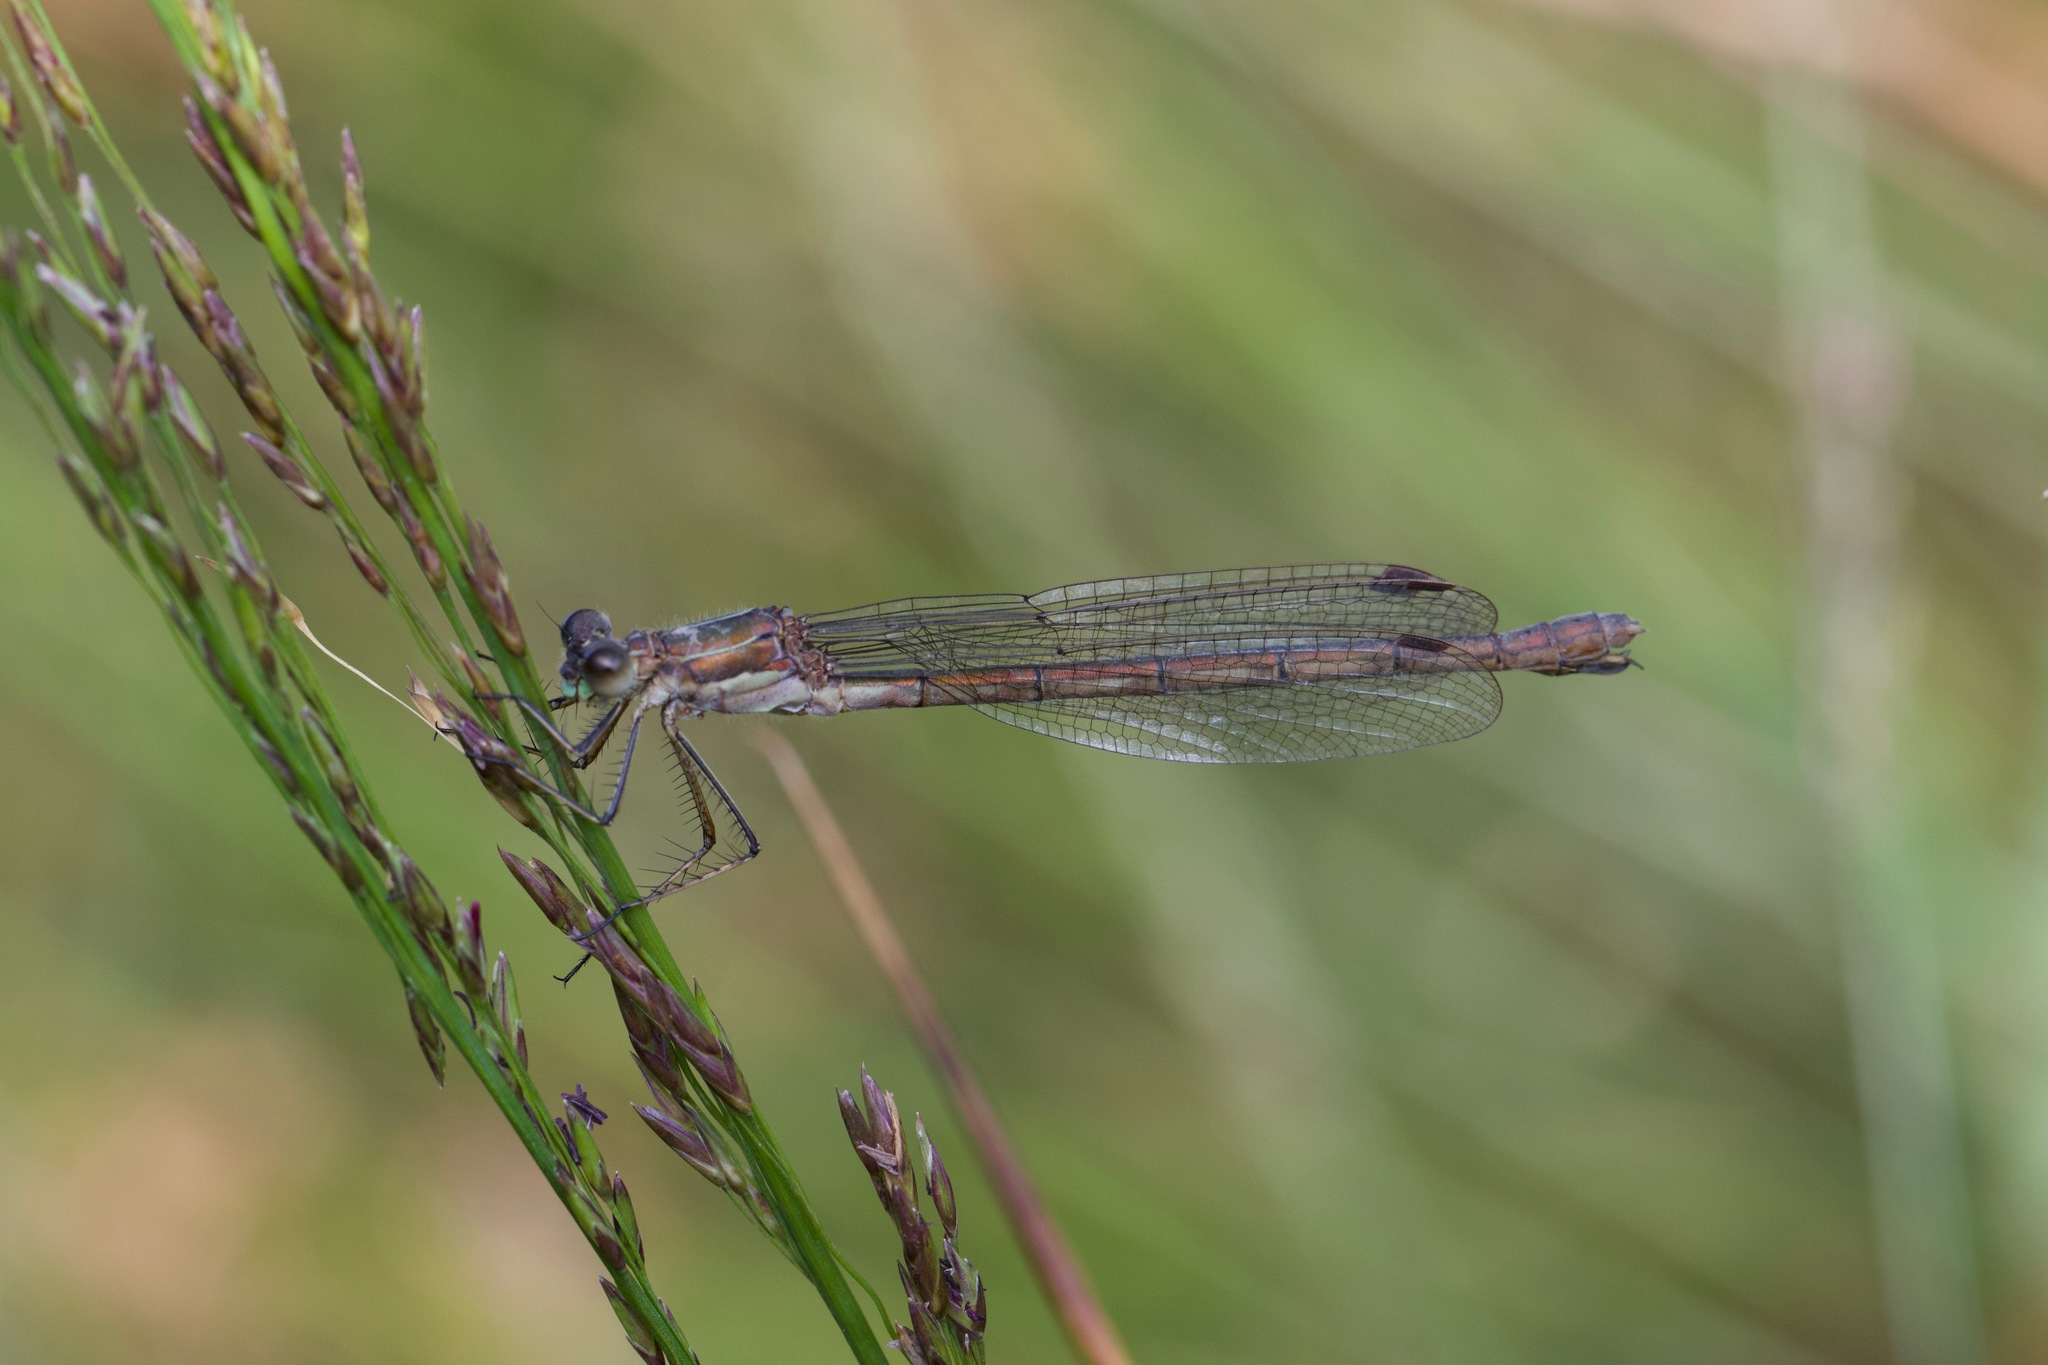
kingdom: Animalia
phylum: Arthropoda
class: Insecta
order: Odonata
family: Lestidae
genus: Lestes
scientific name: Lestes sponsa
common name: Common spreadwing
